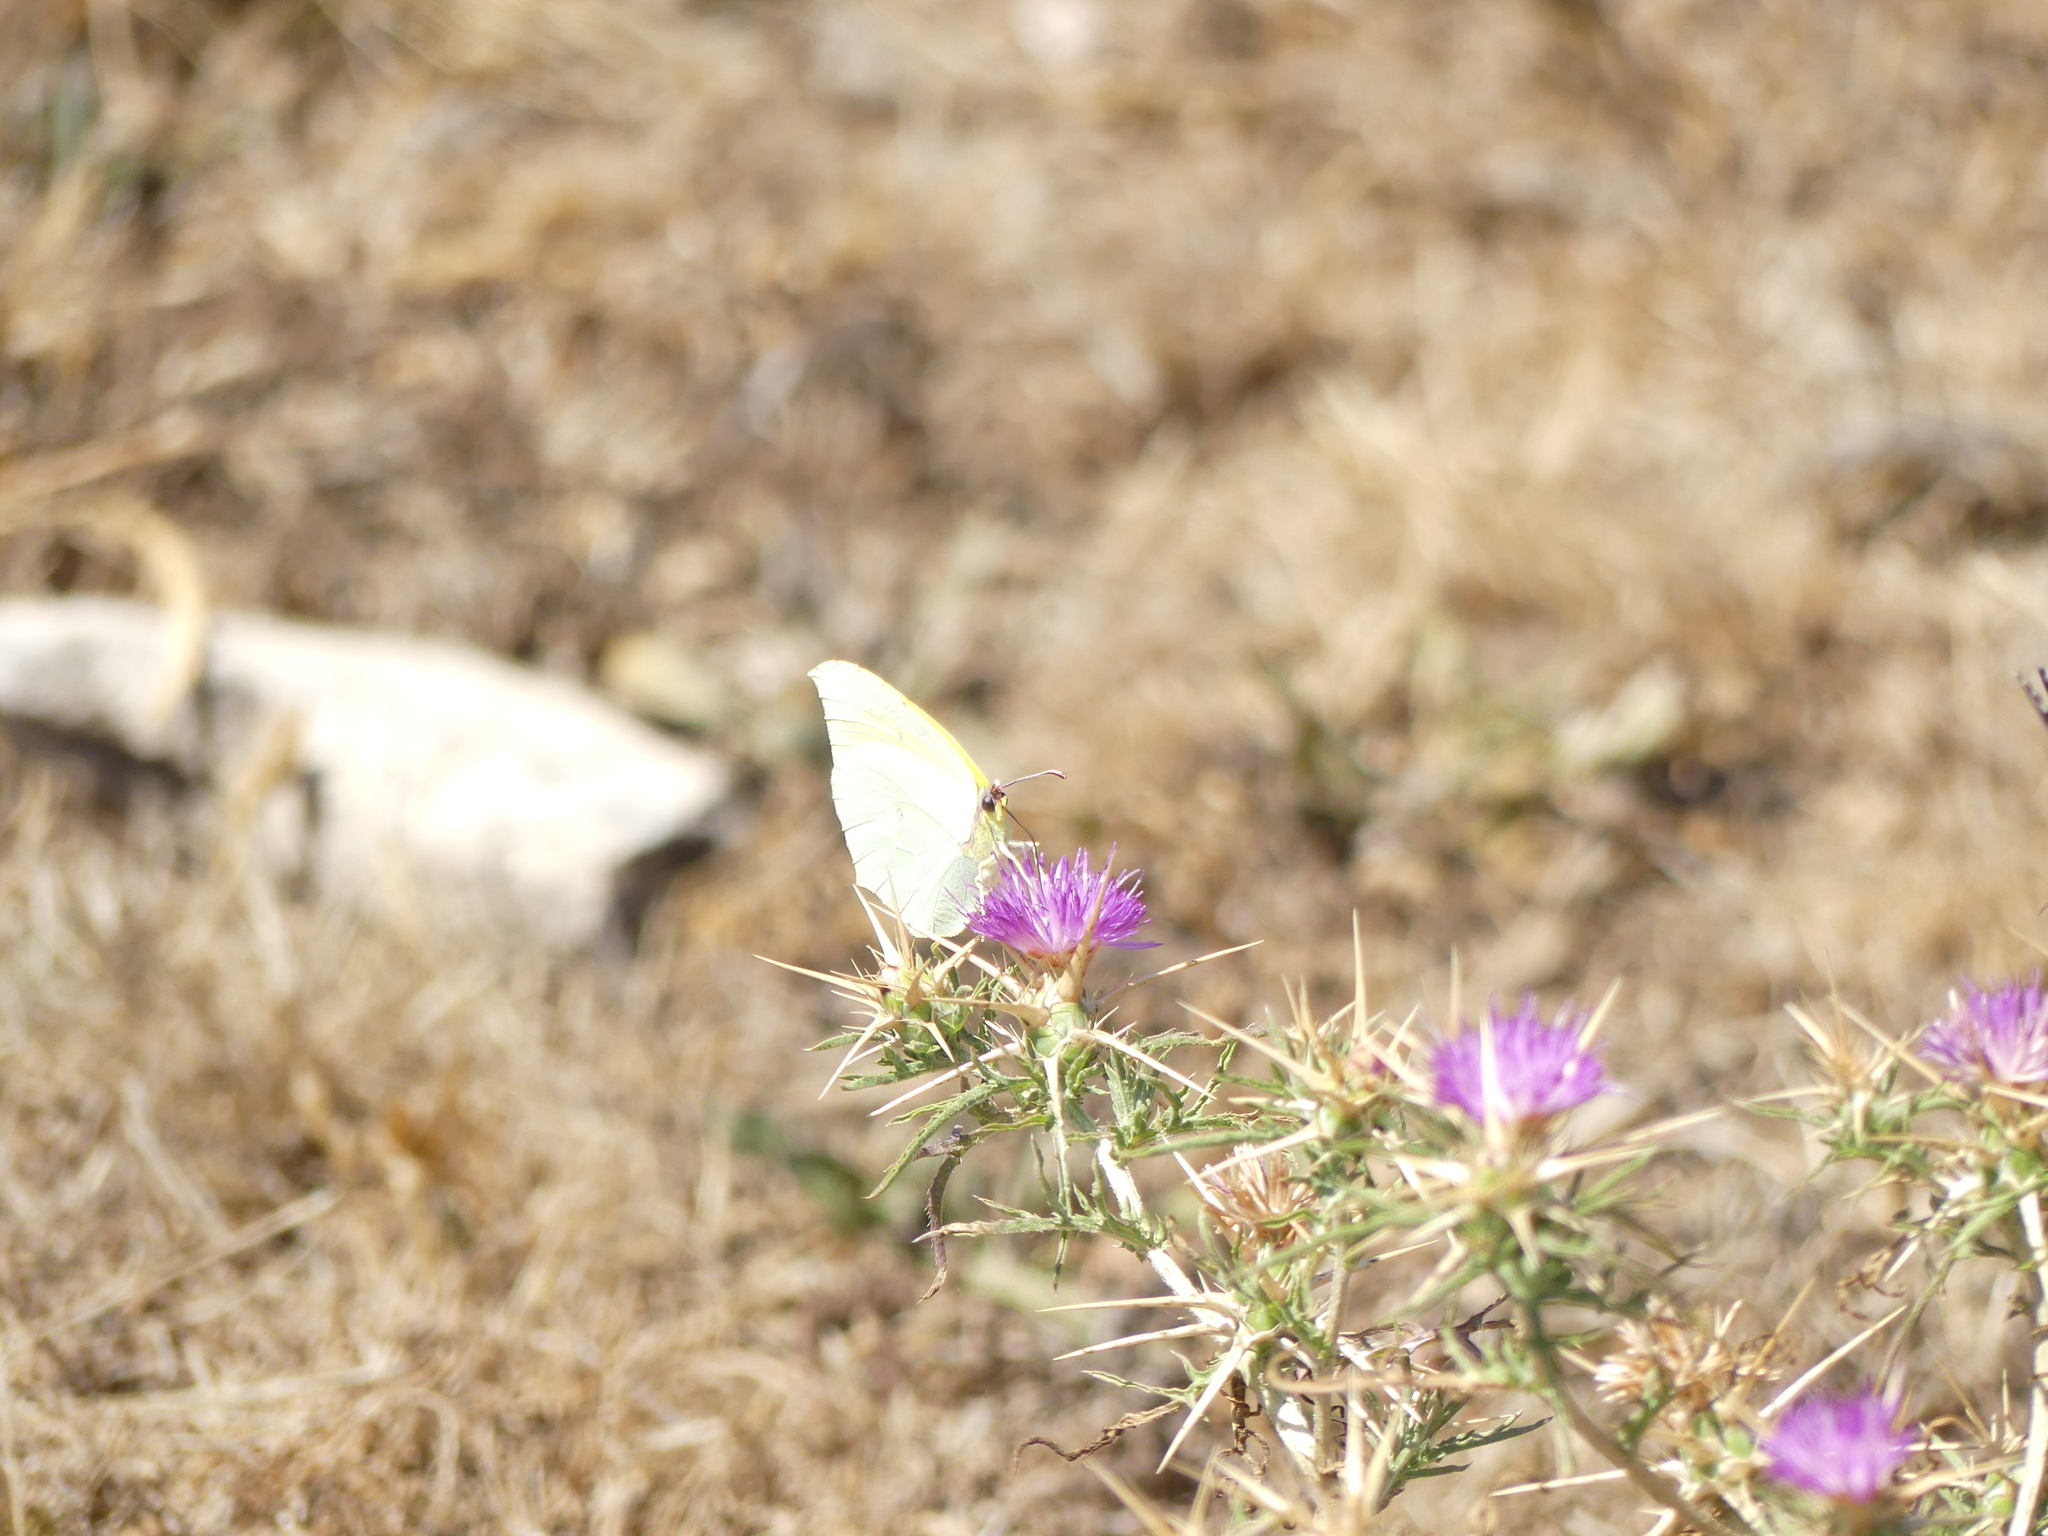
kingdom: Animalia
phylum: Arthropoda
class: Insecta
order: Lepidoptera
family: Pieridae
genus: Gonepteryx
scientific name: Gonepteryx cleopatra
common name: Cleopatra
